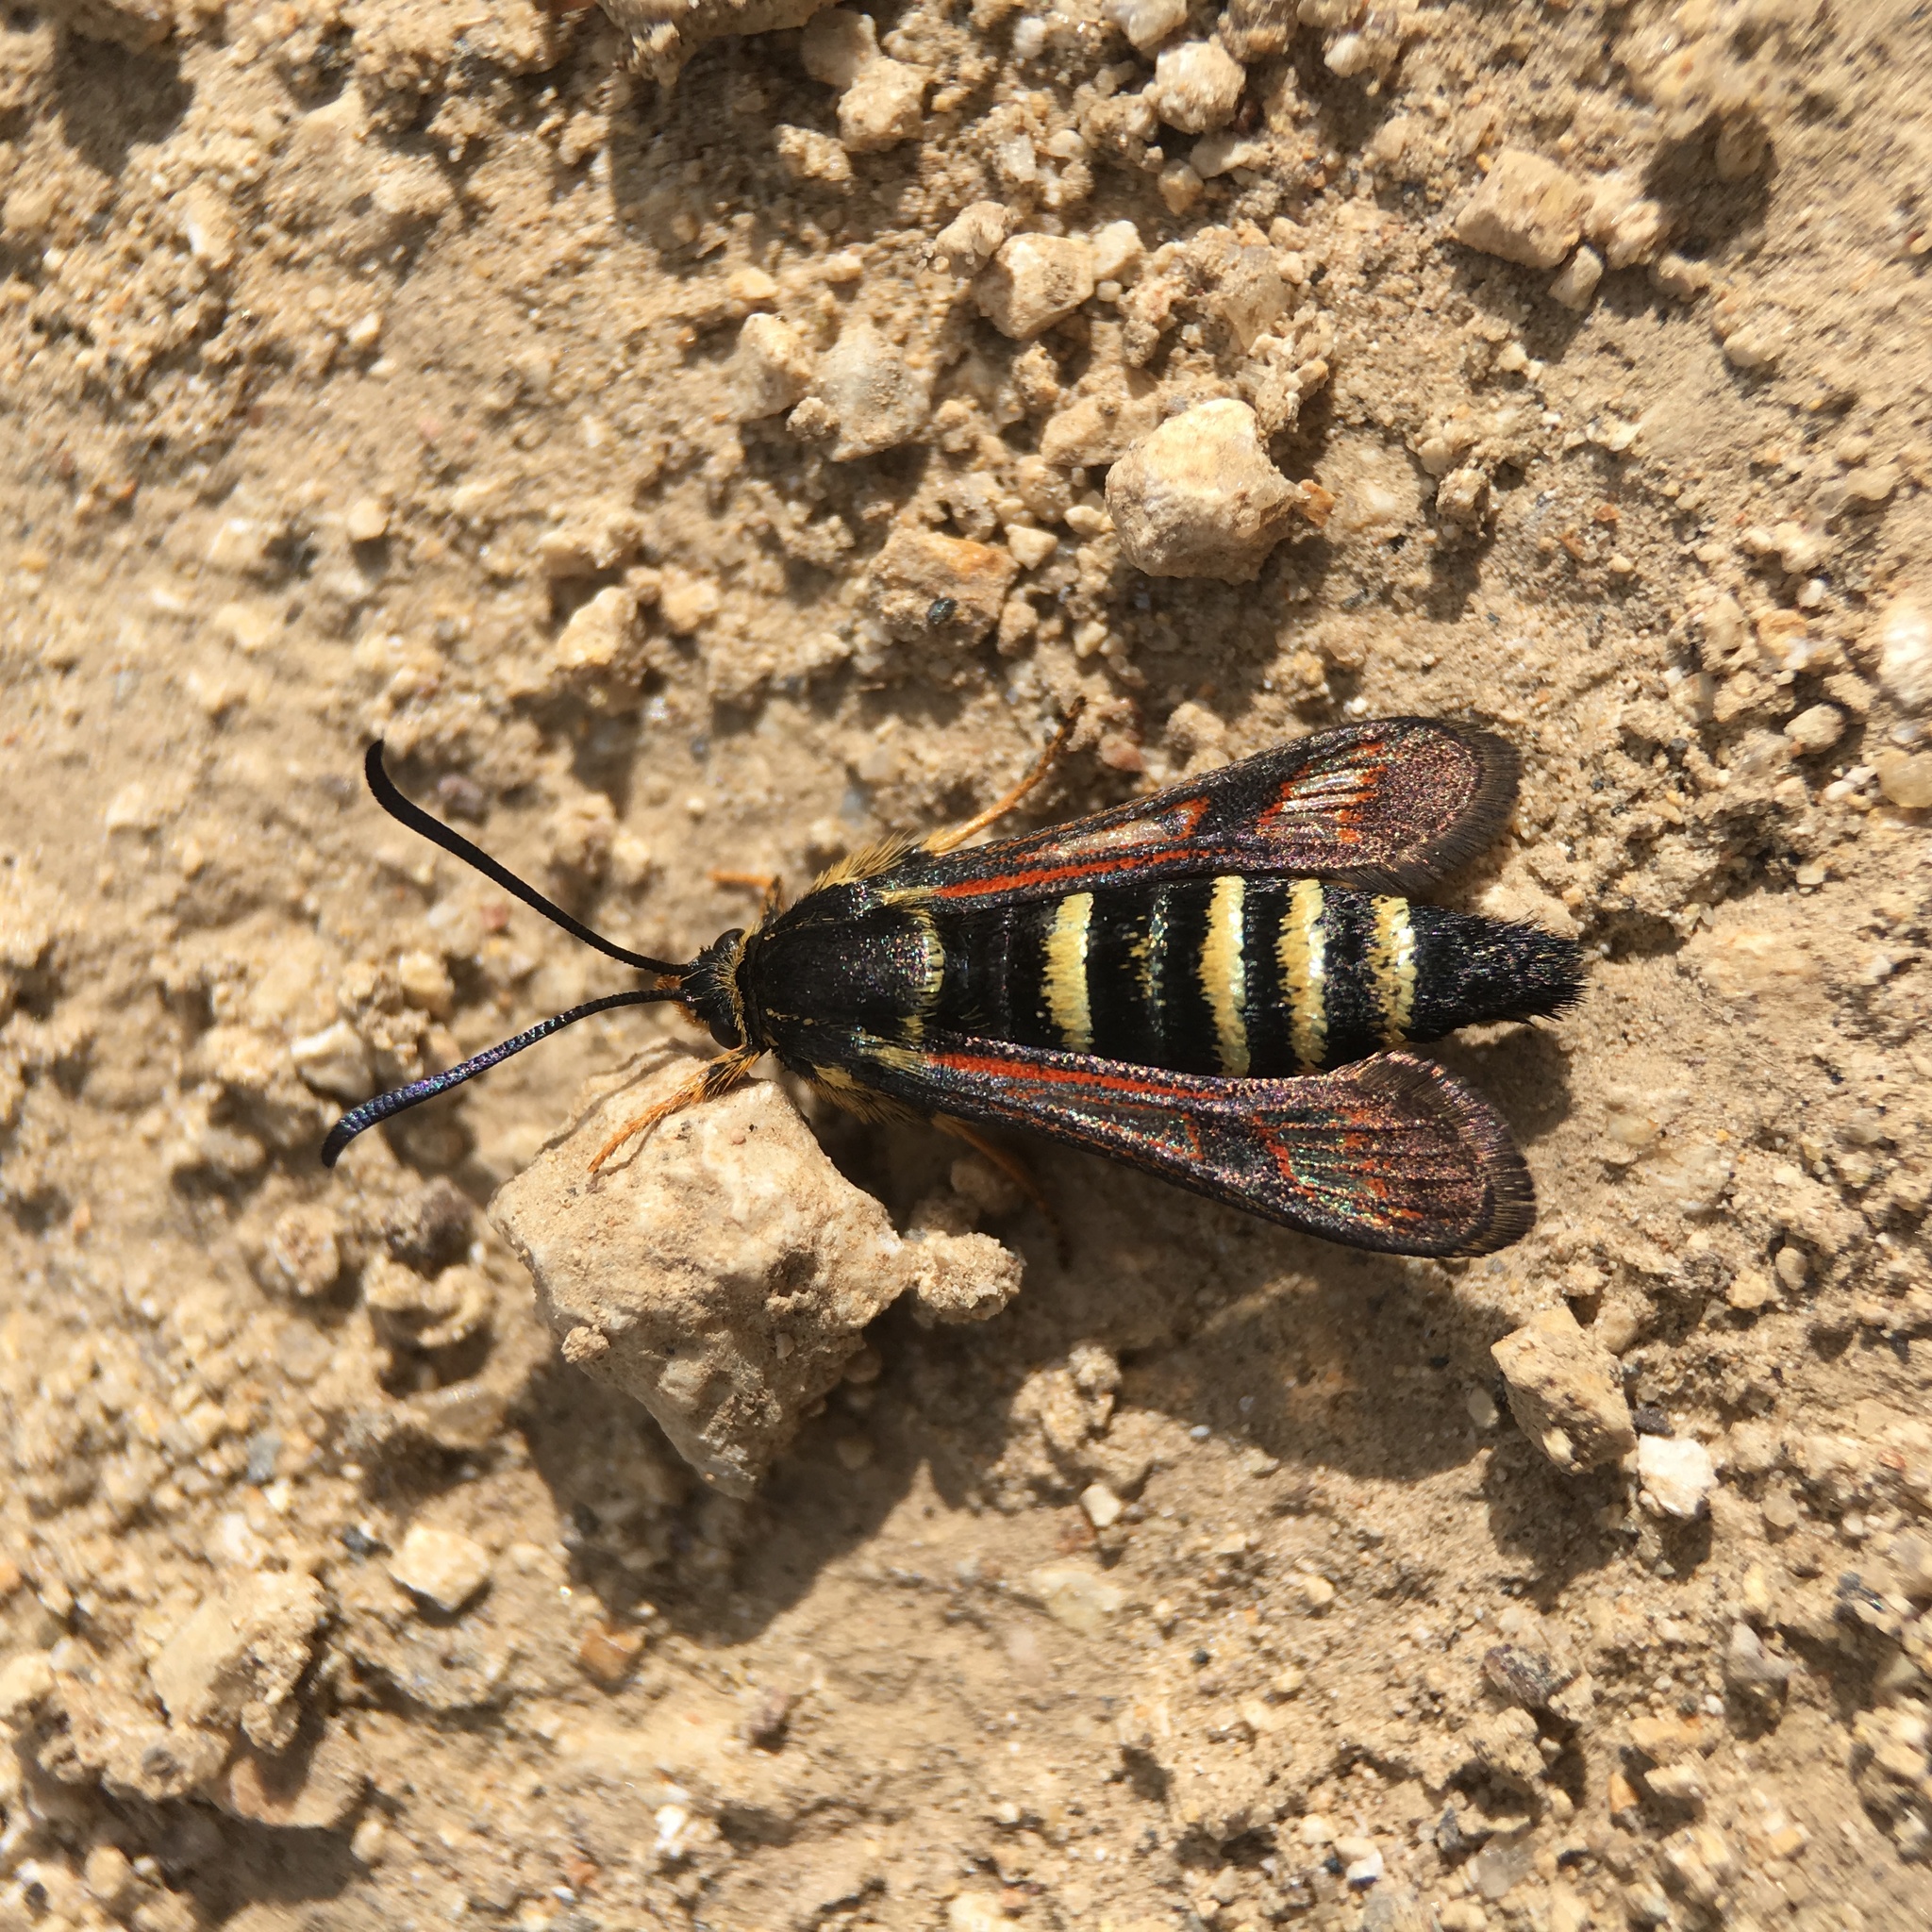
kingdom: Animalia
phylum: Arthropoda
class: Insecta
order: Lepidoptera
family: Sesiidae
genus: Albuna
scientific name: Albuna pyramidalis
